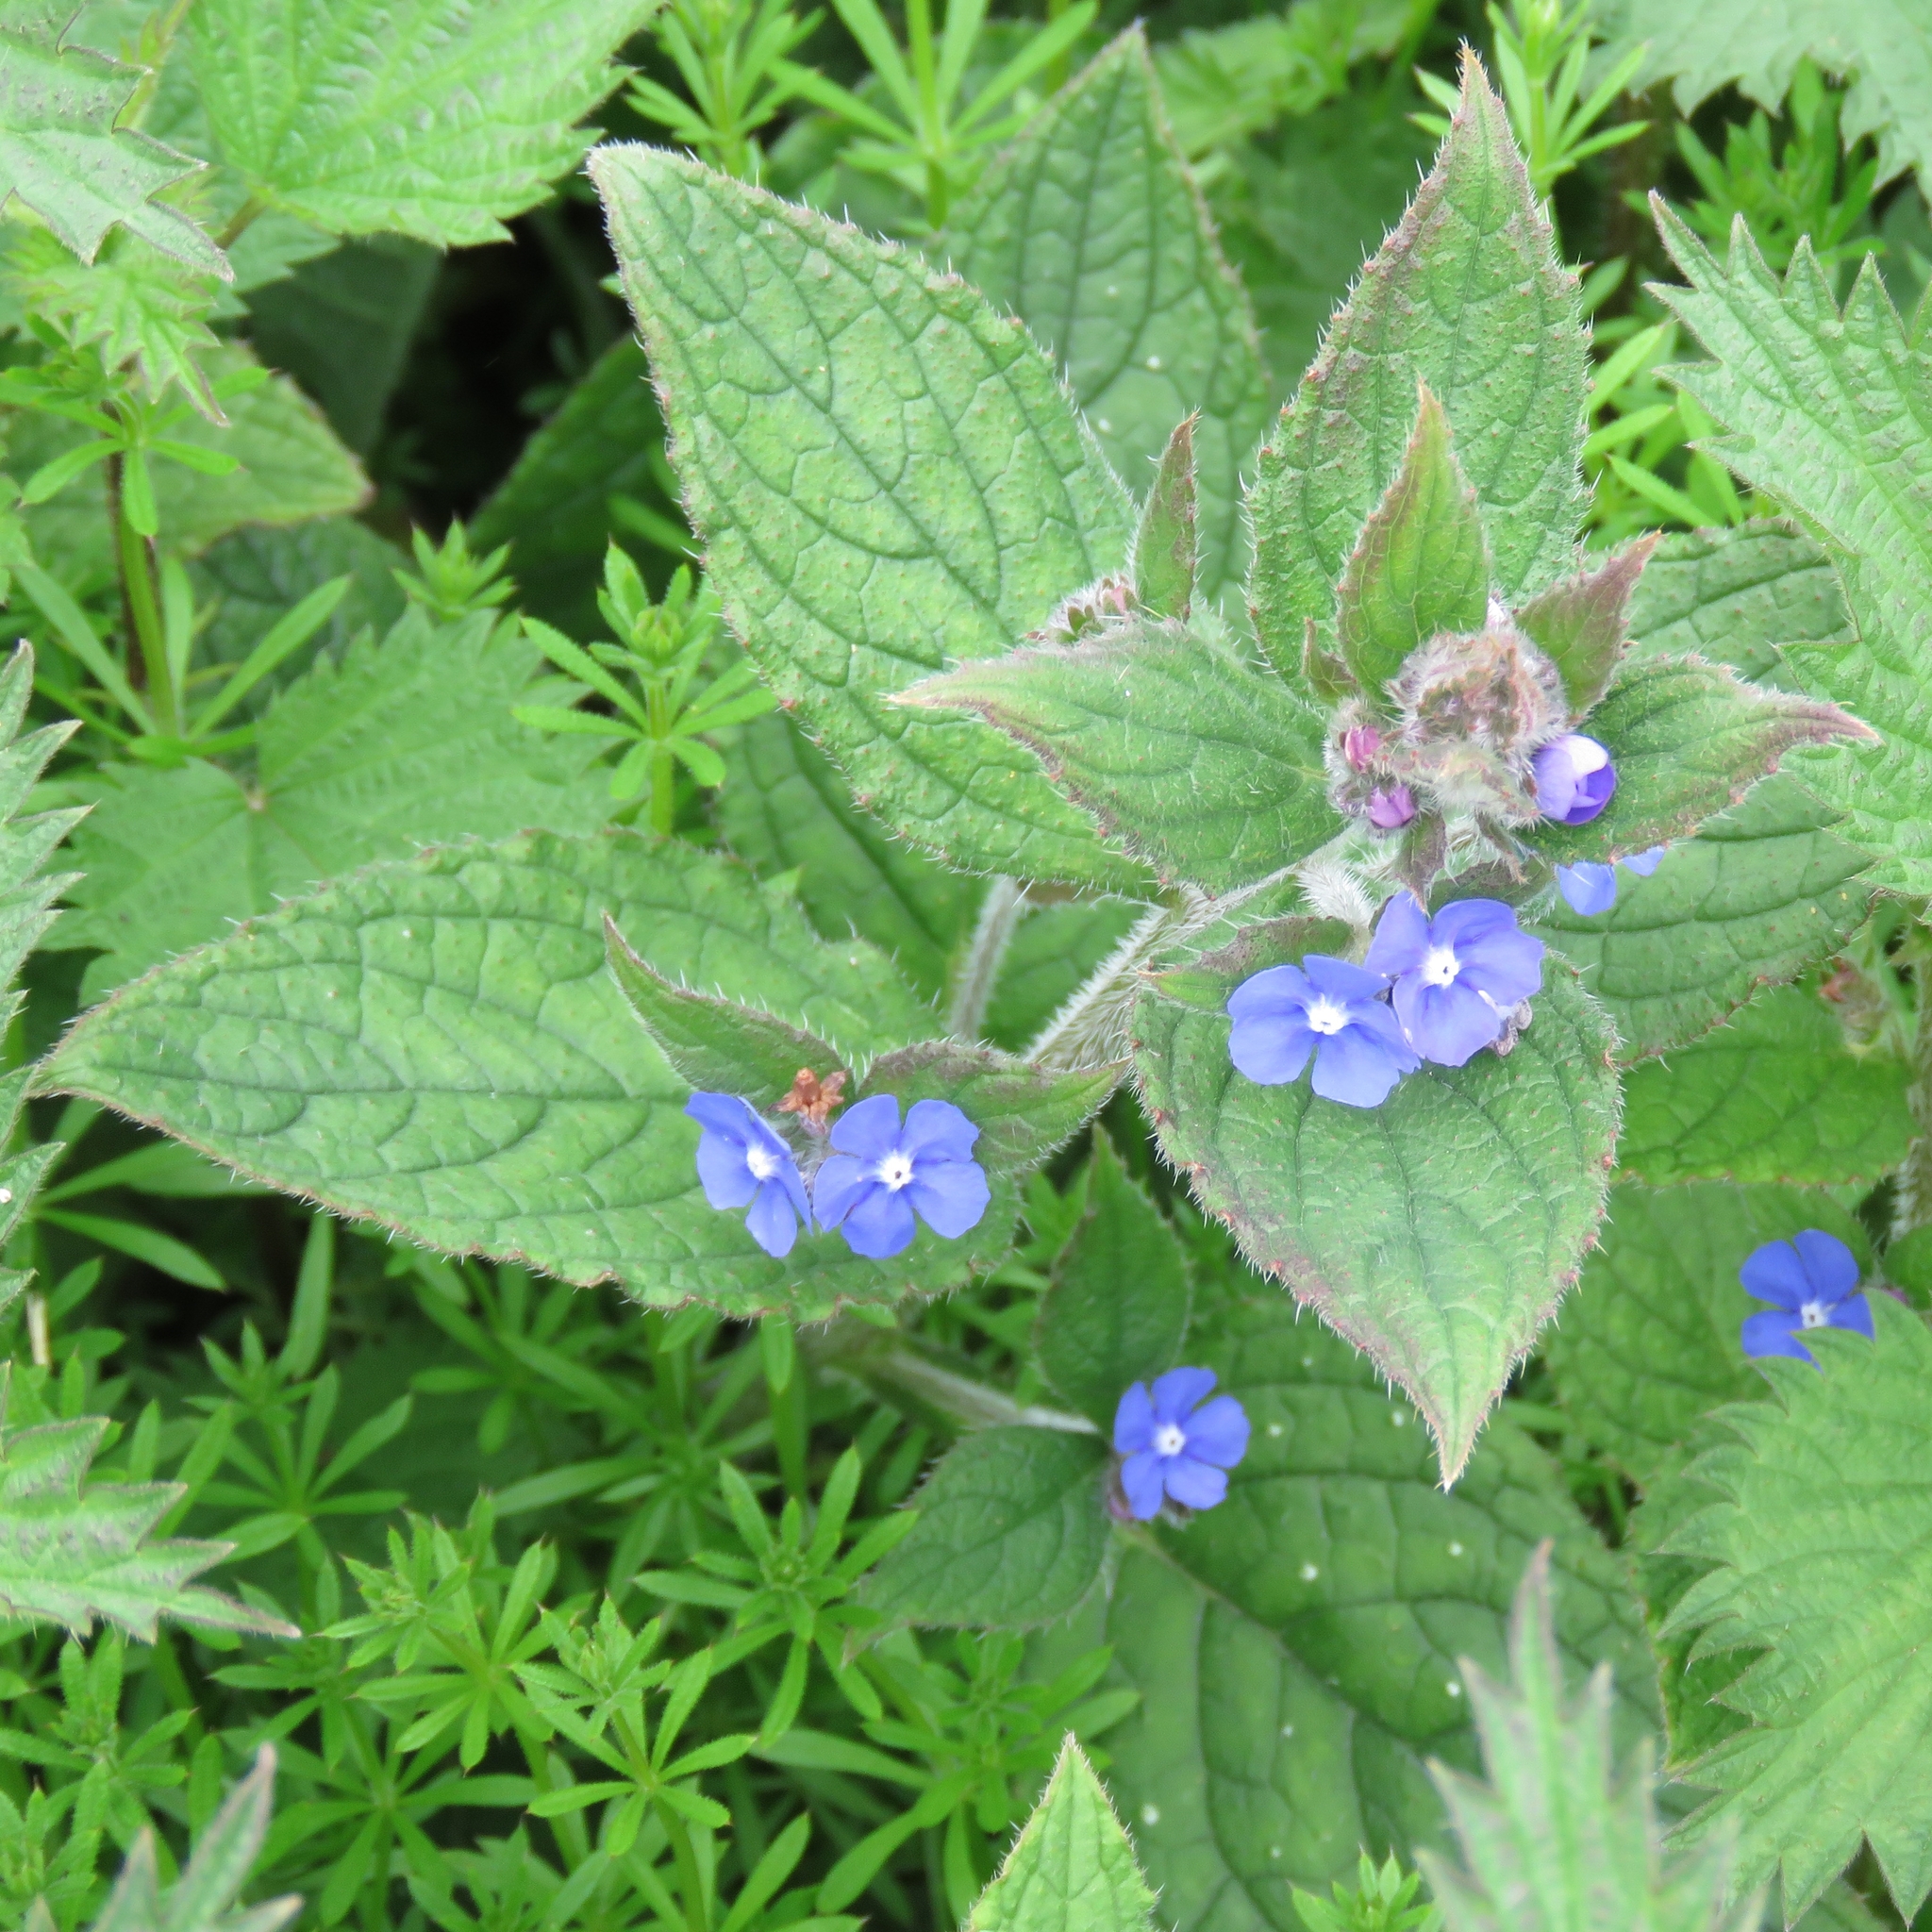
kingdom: Plantae
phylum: Tracheophyta
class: Magnoliopsida
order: Boraginales
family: Boraginaceae
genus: Pentaglottis
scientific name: Pentaglottis sempervirens
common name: Green alkanet
